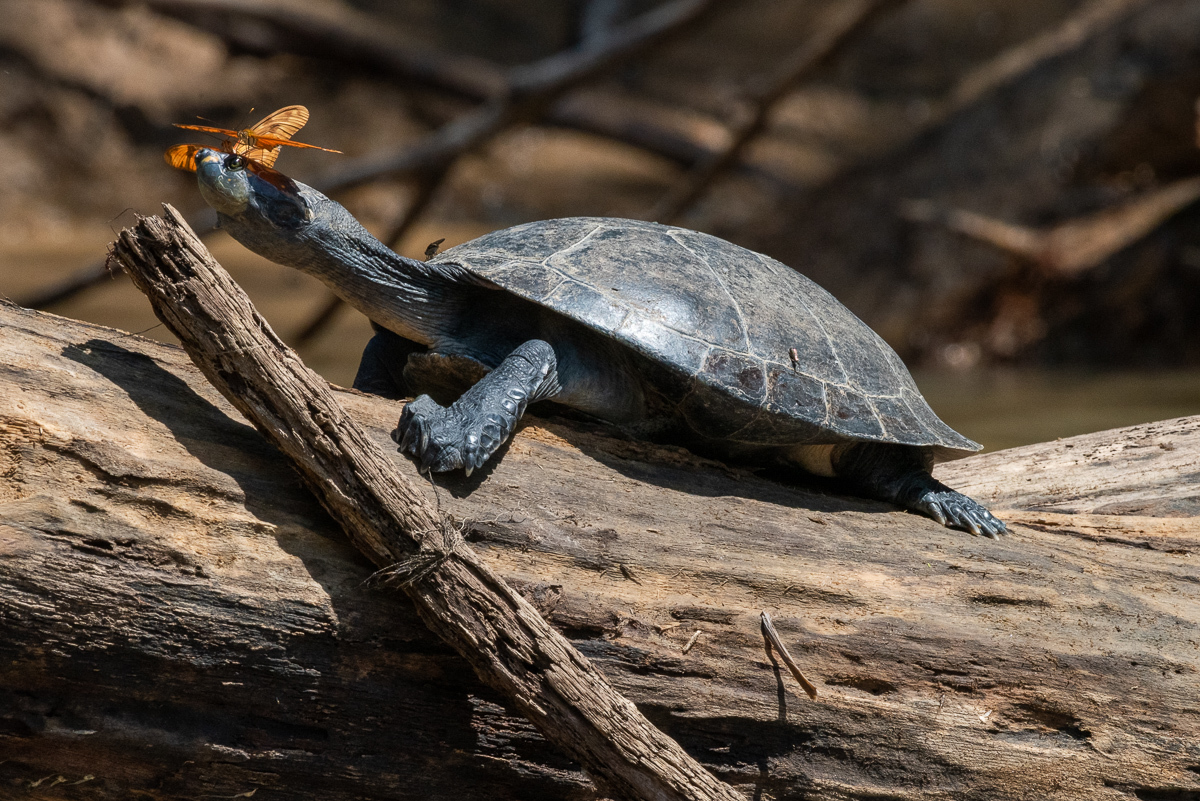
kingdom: Animalia
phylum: Chordata
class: Testudines
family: Podocnemididae
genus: Podocnemis
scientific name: Podocnemis unifilis
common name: Yellow-spotted amazon river turtle
